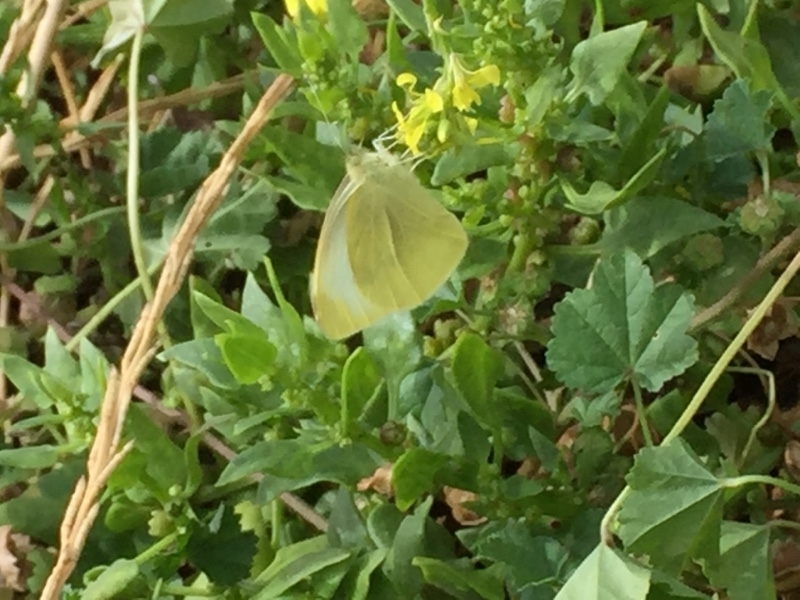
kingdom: Animalia
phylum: Arthropoda
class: Insecta
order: Lepidoptera
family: Pieridae
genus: Pieris
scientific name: Pieris rapae
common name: Small white
